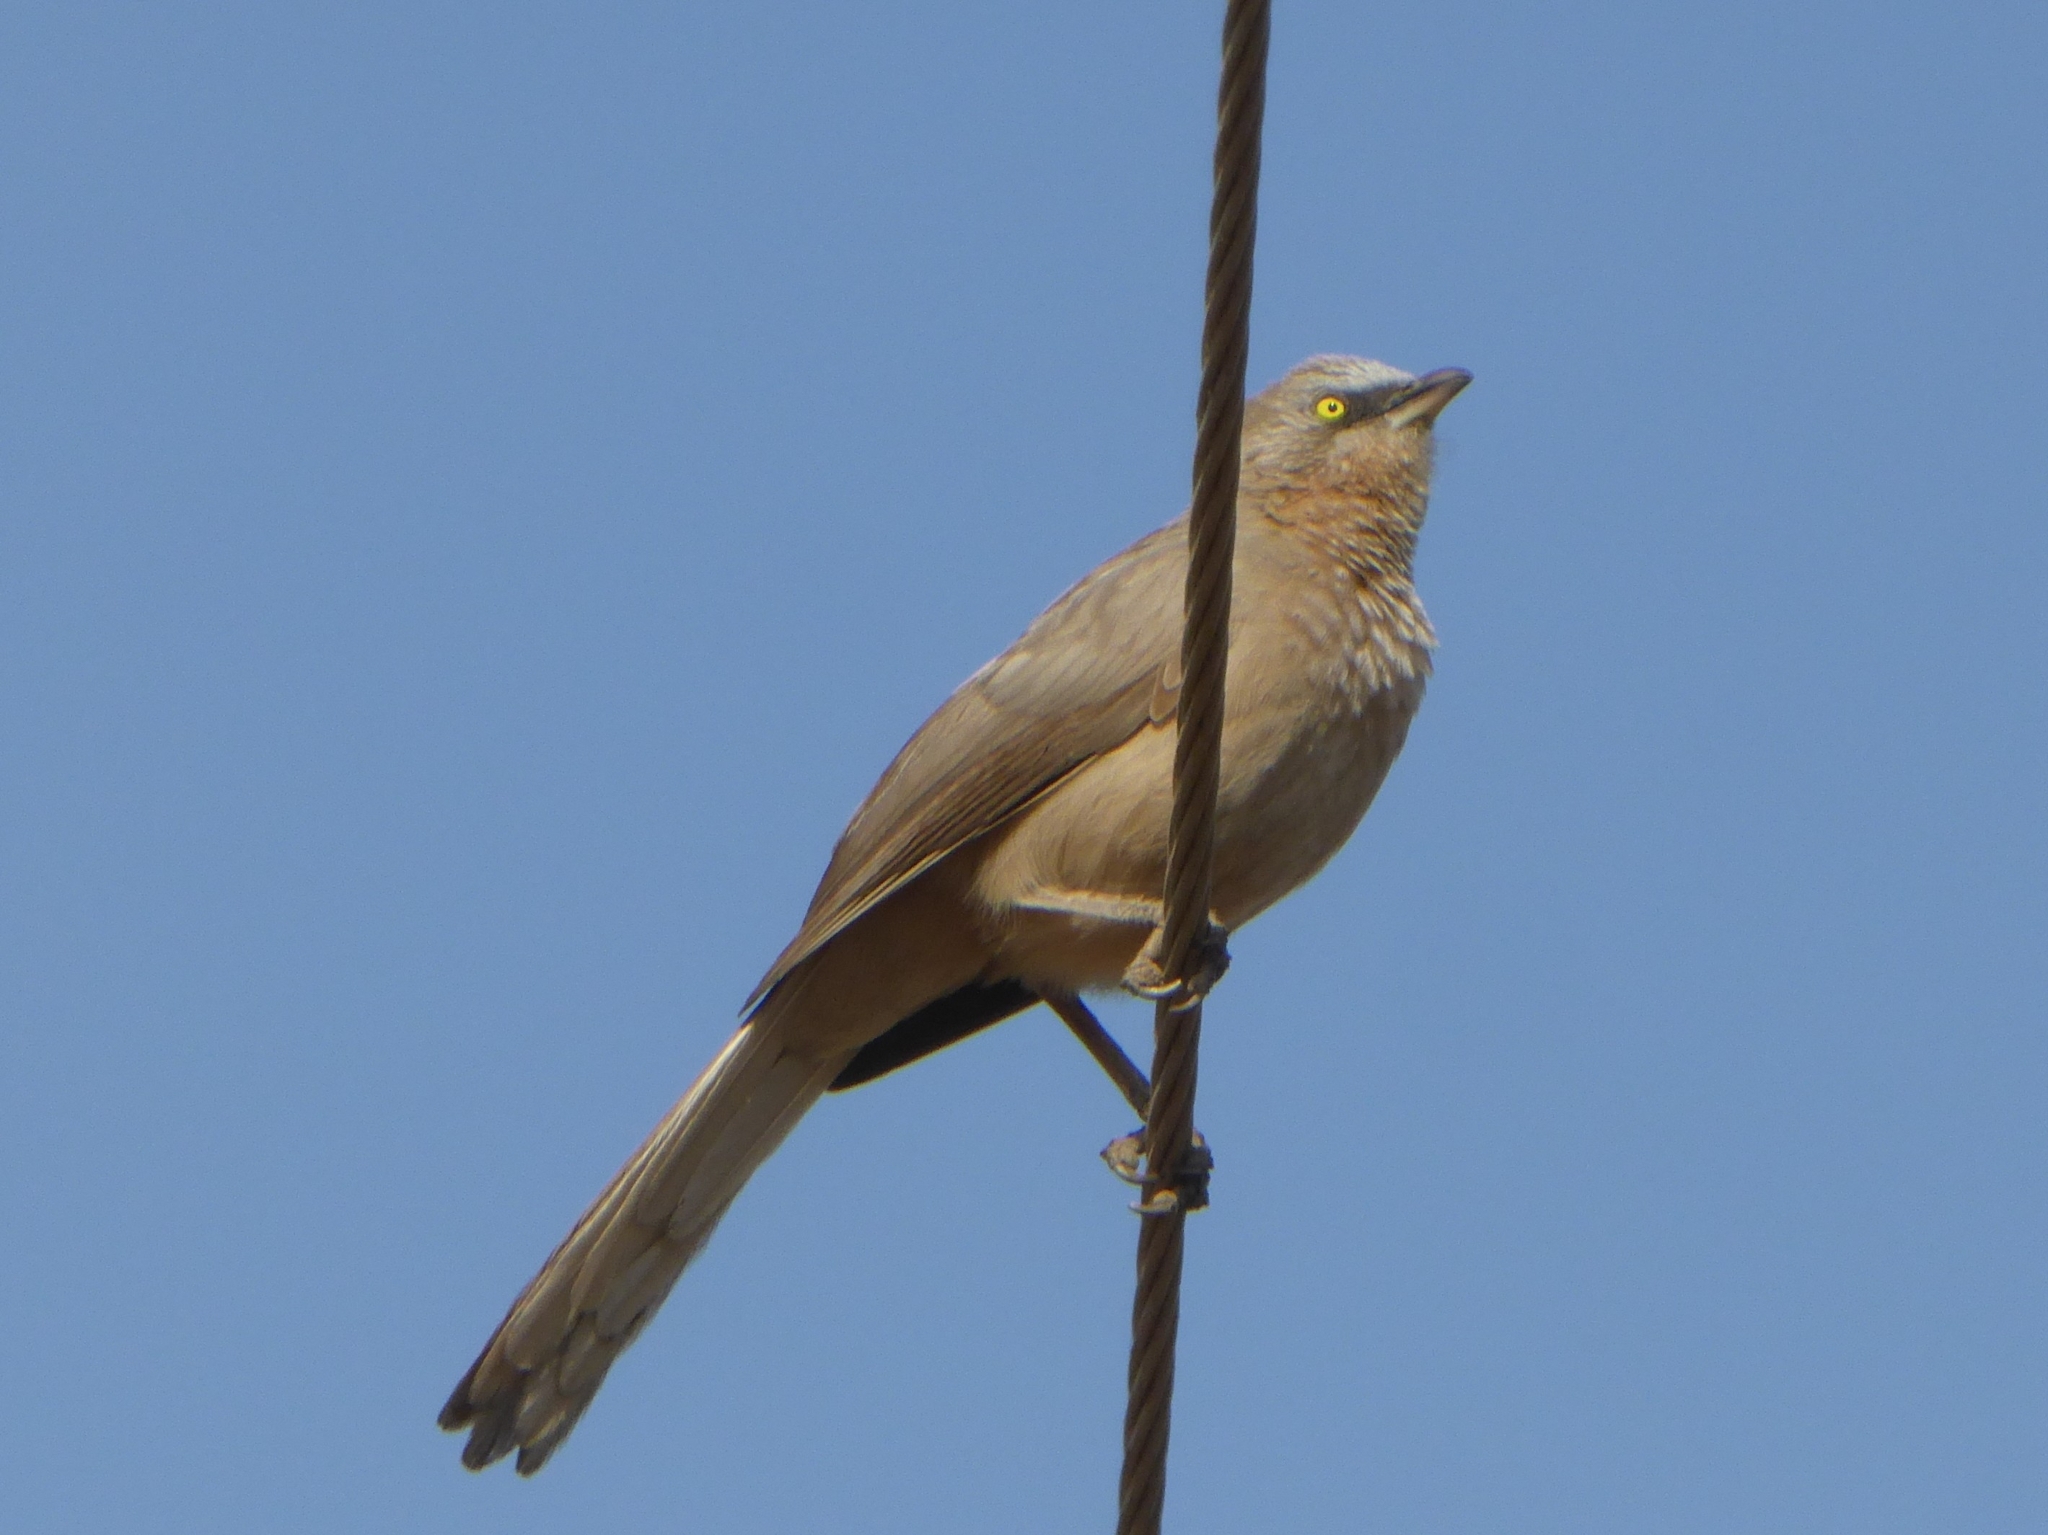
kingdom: Animalia
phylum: Chordata
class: Aves
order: Passeriformes
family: Leiothrichidae
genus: Turdoides
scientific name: Turdoides malcolmi
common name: Large grey babbler
